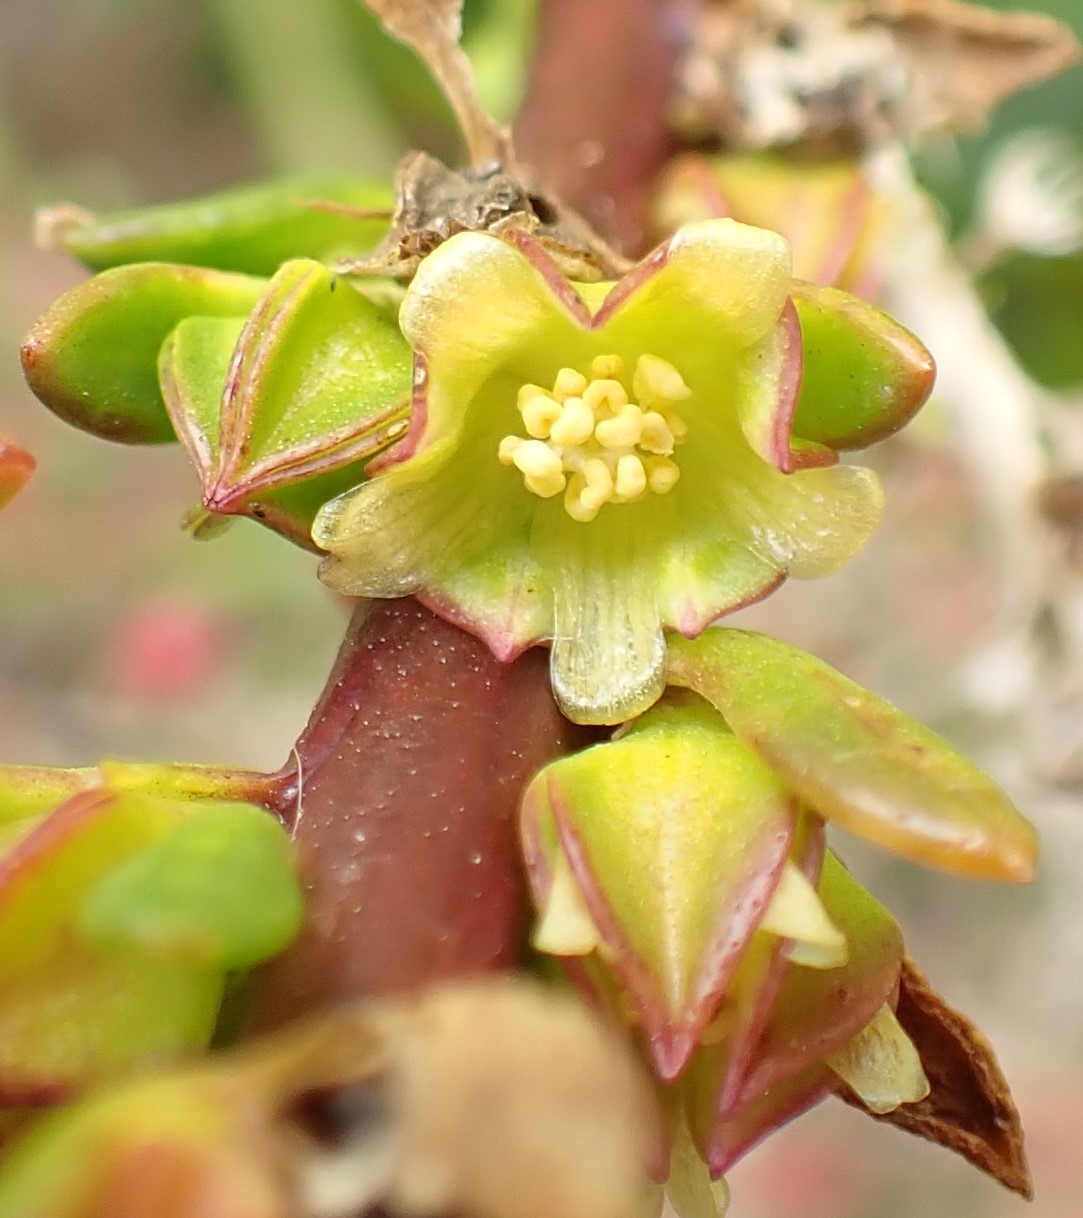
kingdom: Plantae
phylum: Tracheophyta
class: Magnoliopsida
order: Malvales
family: Malvaceae
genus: Lawrencia
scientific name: Lawrencia spicata
